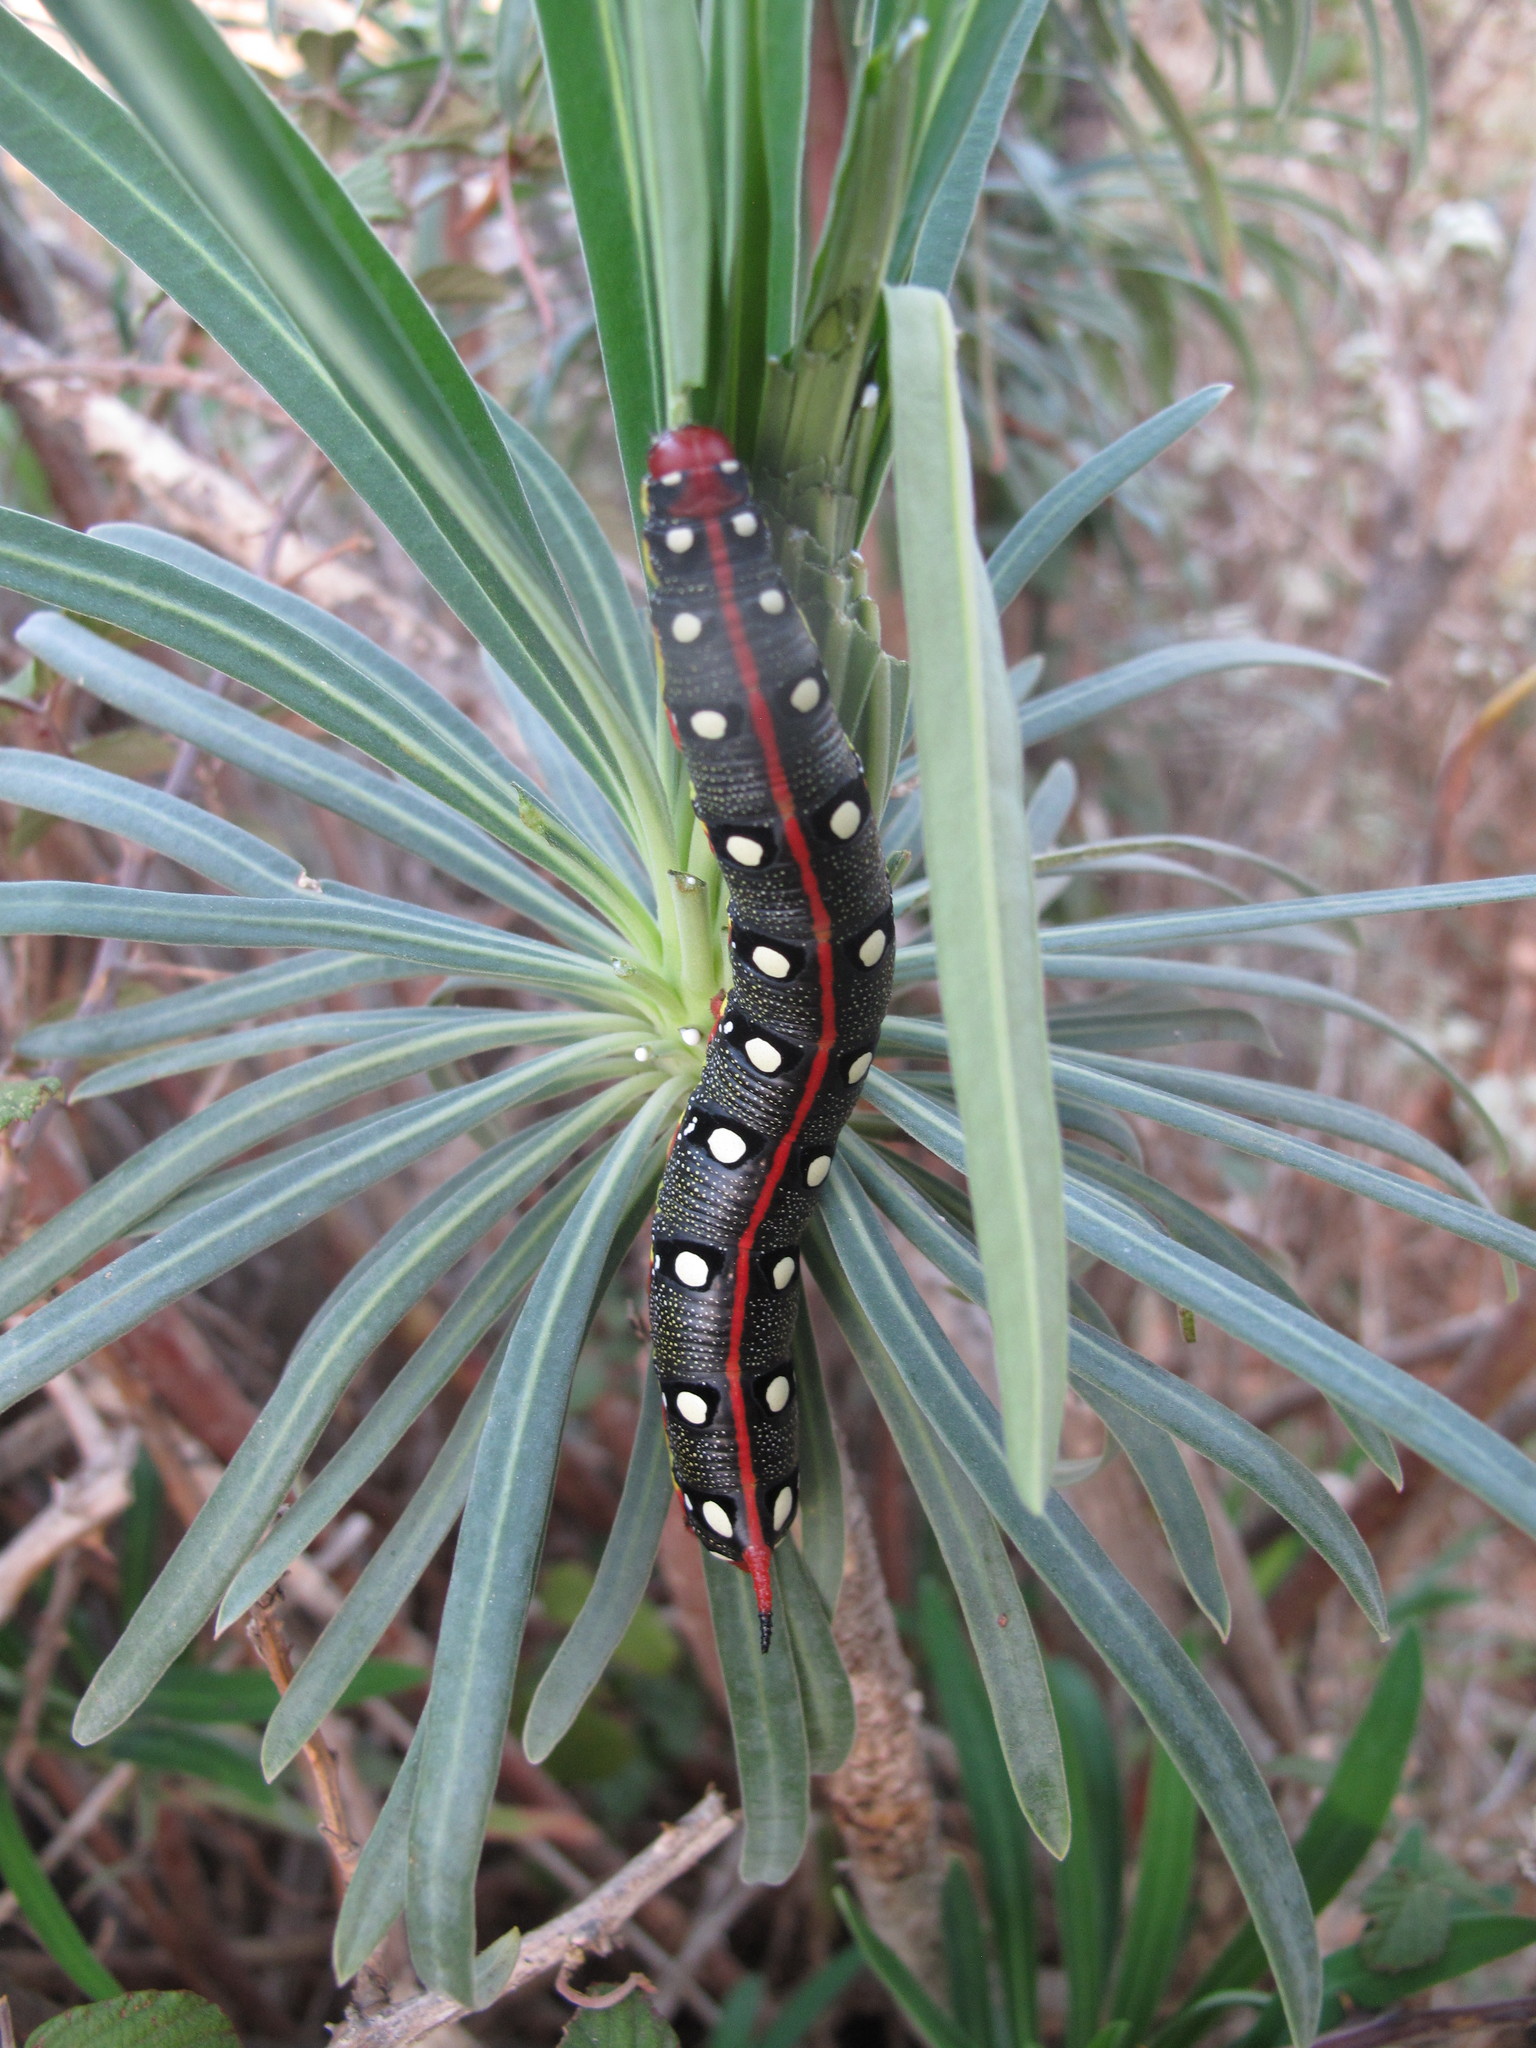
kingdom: Animalia
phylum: Arthropoda
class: Insecta
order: Lepidoptera
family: Sphingidae
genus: Hyles
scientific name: Hyles euphorbiae
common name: Spurge hawk-moth
